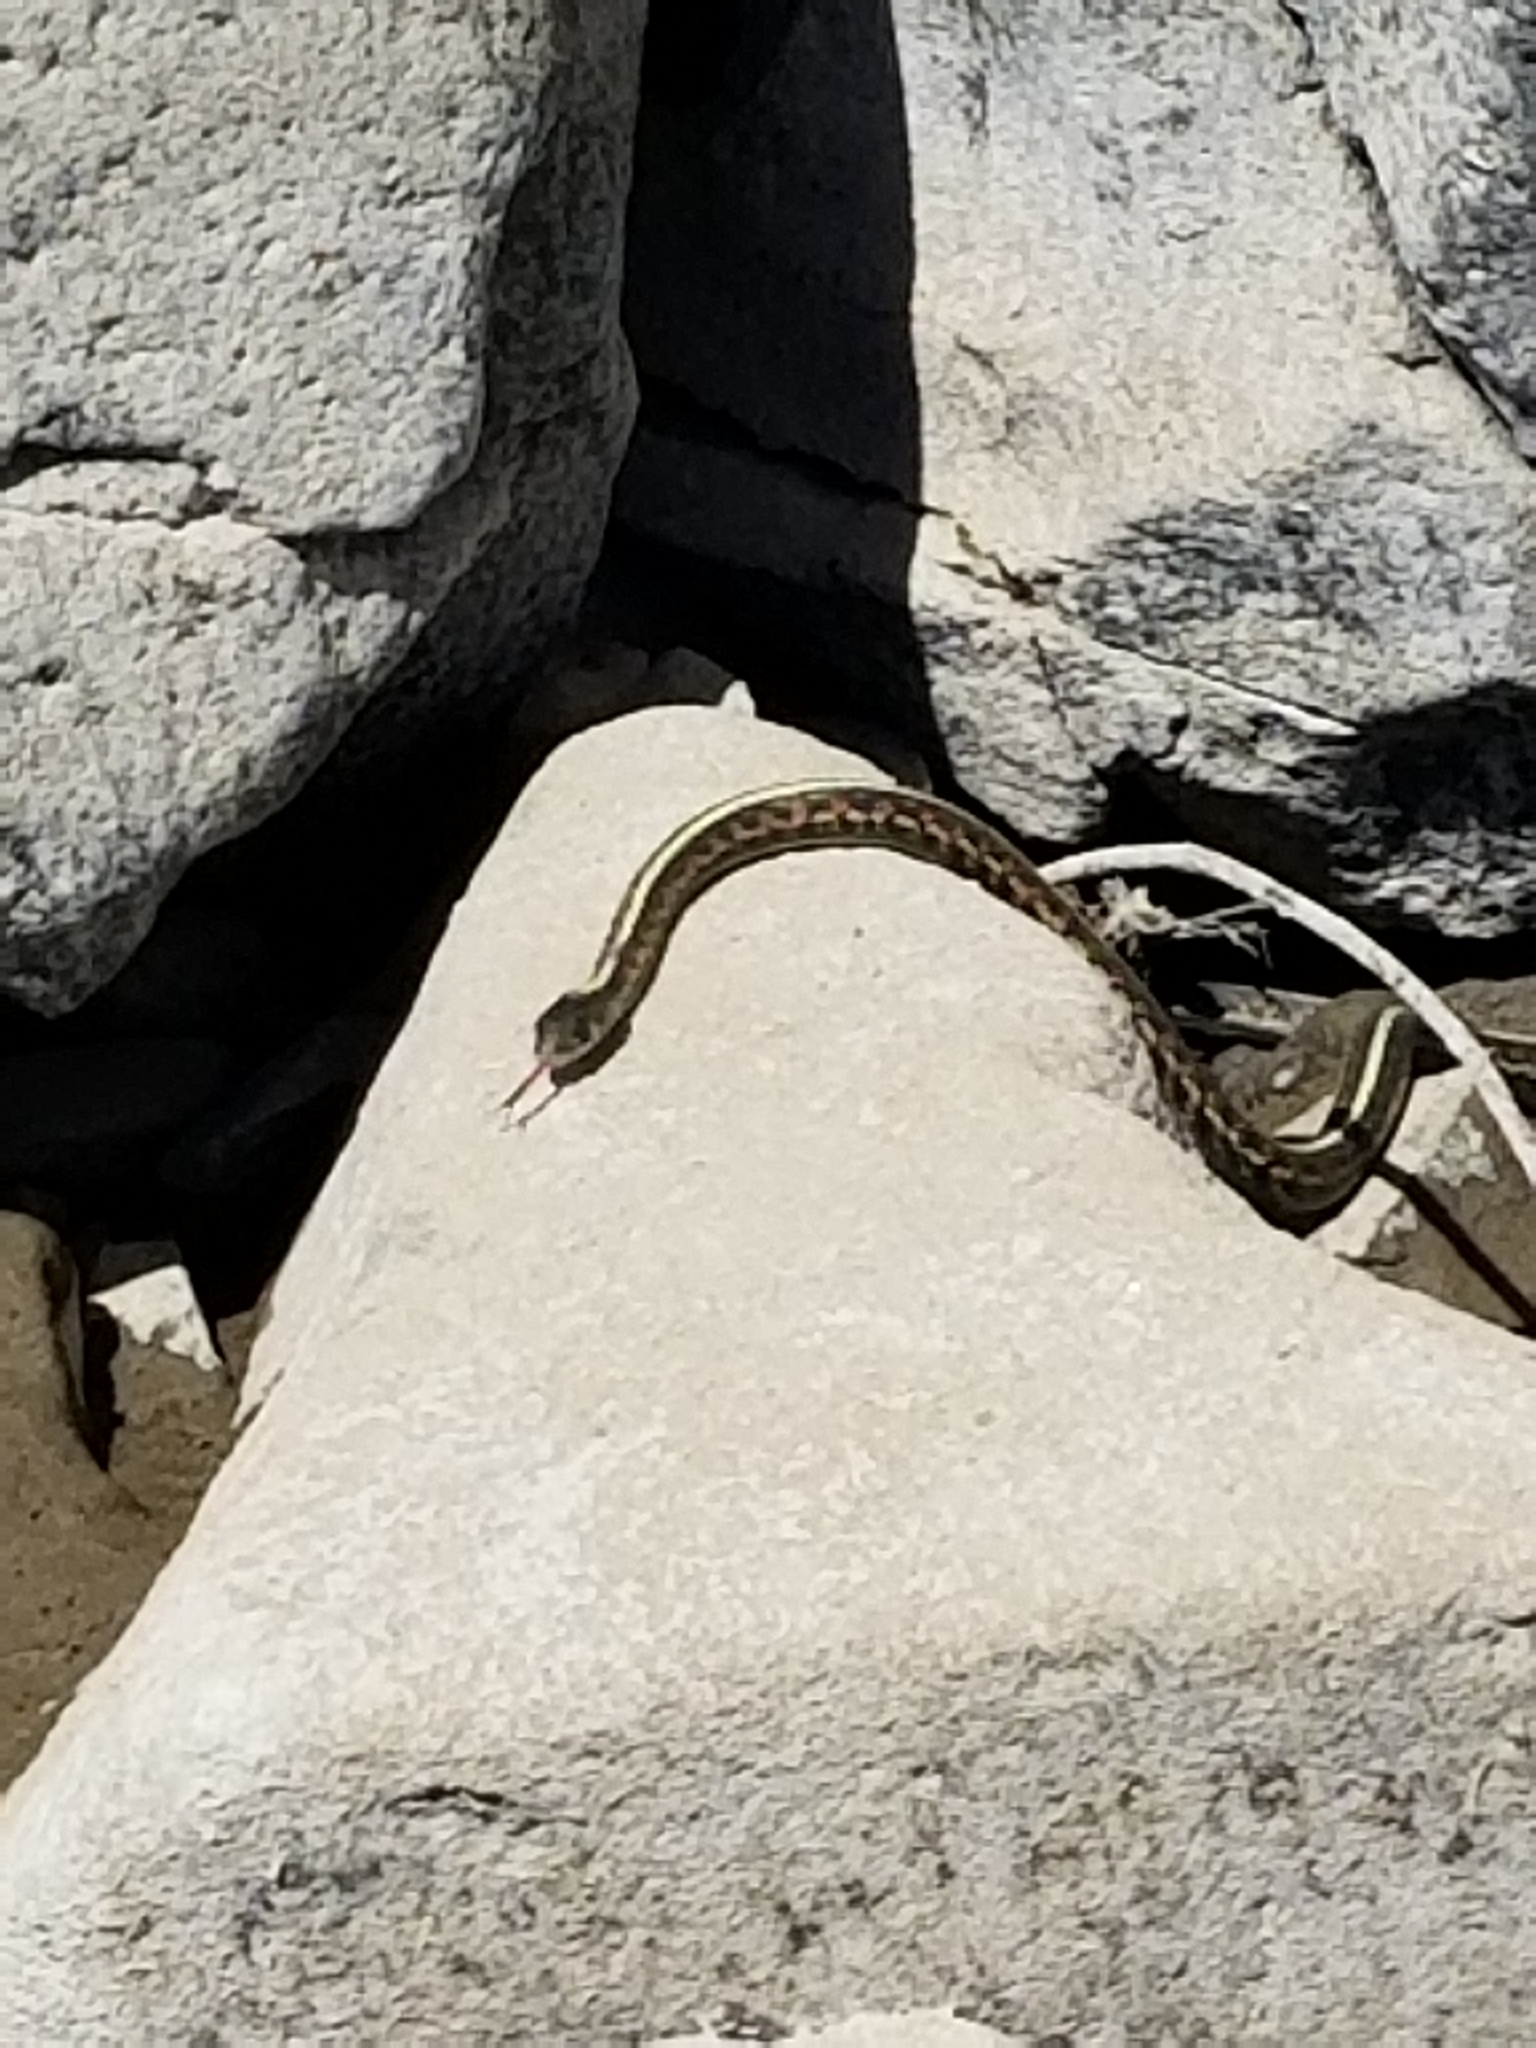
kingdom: Animalia
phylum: Chordata
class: Squamata
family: Colubridae
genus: Thamnophis
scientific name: Thamnophis sirtalis
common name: Common garter snake
